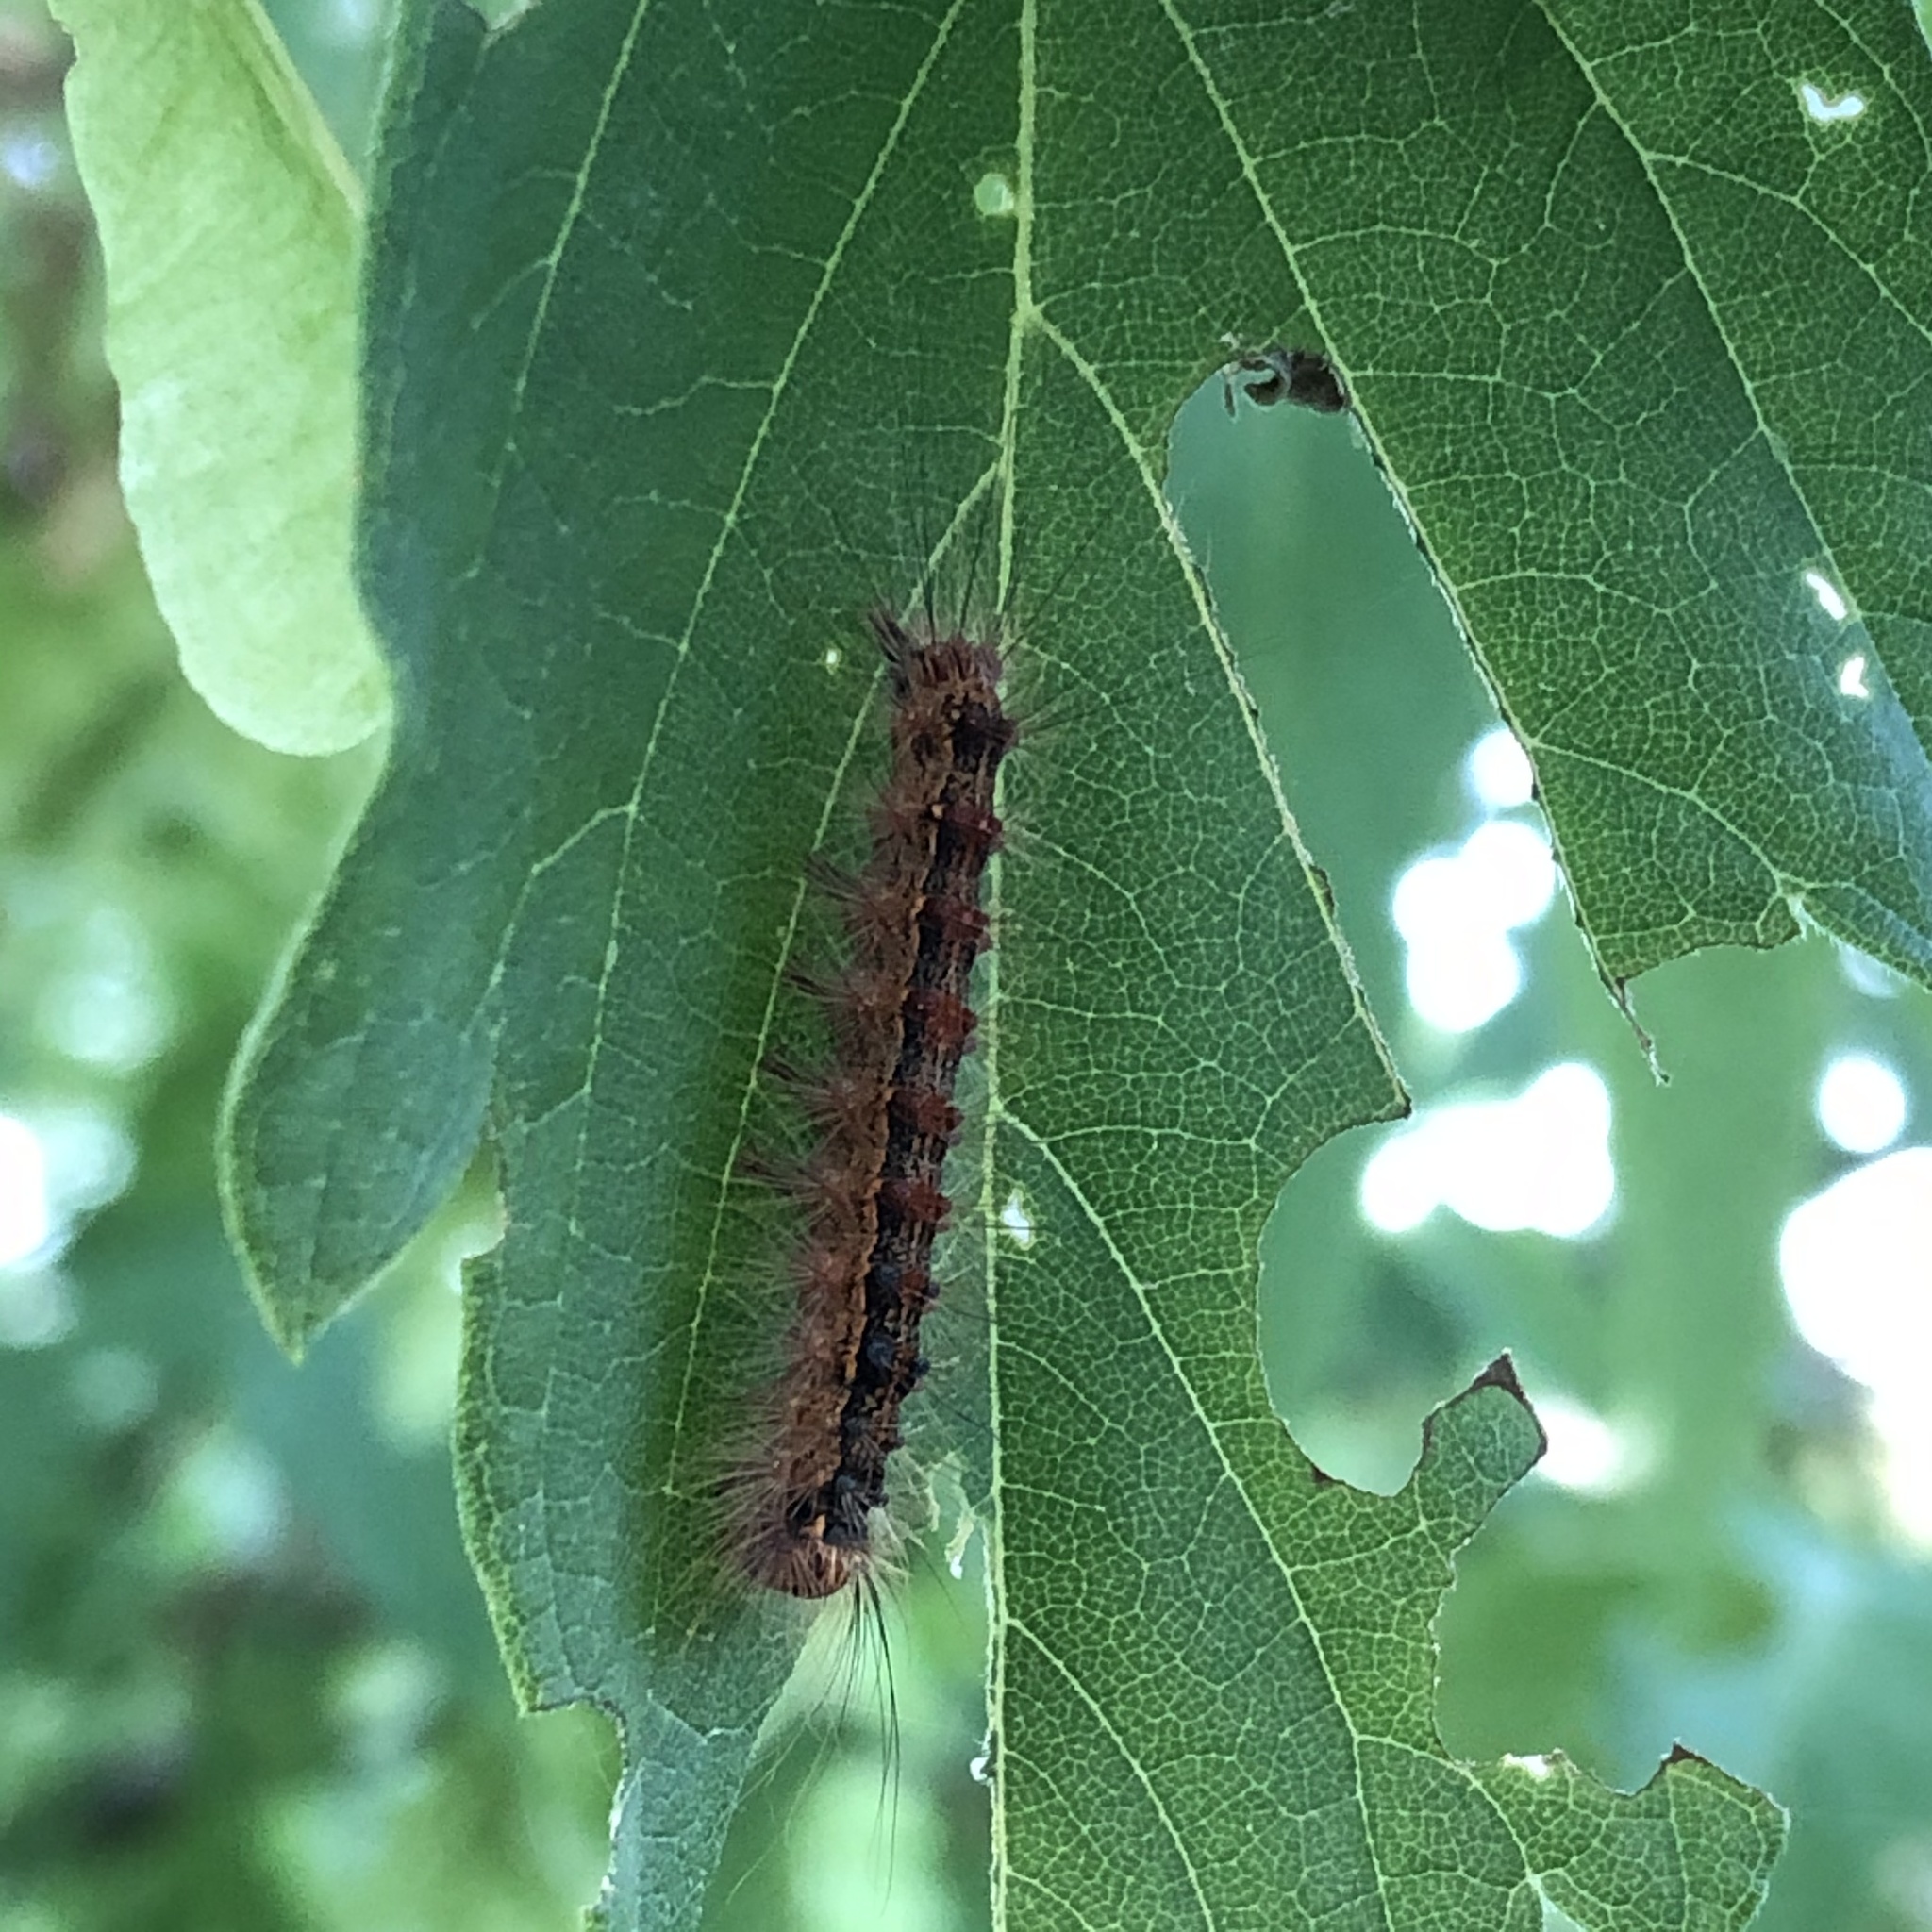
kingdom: Animalia
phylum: Arthropoda
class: Insecta
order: Lepidoptera
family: Erebidae
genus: Lymantria
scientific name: Lymantria dispar
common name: Gypsy moth
